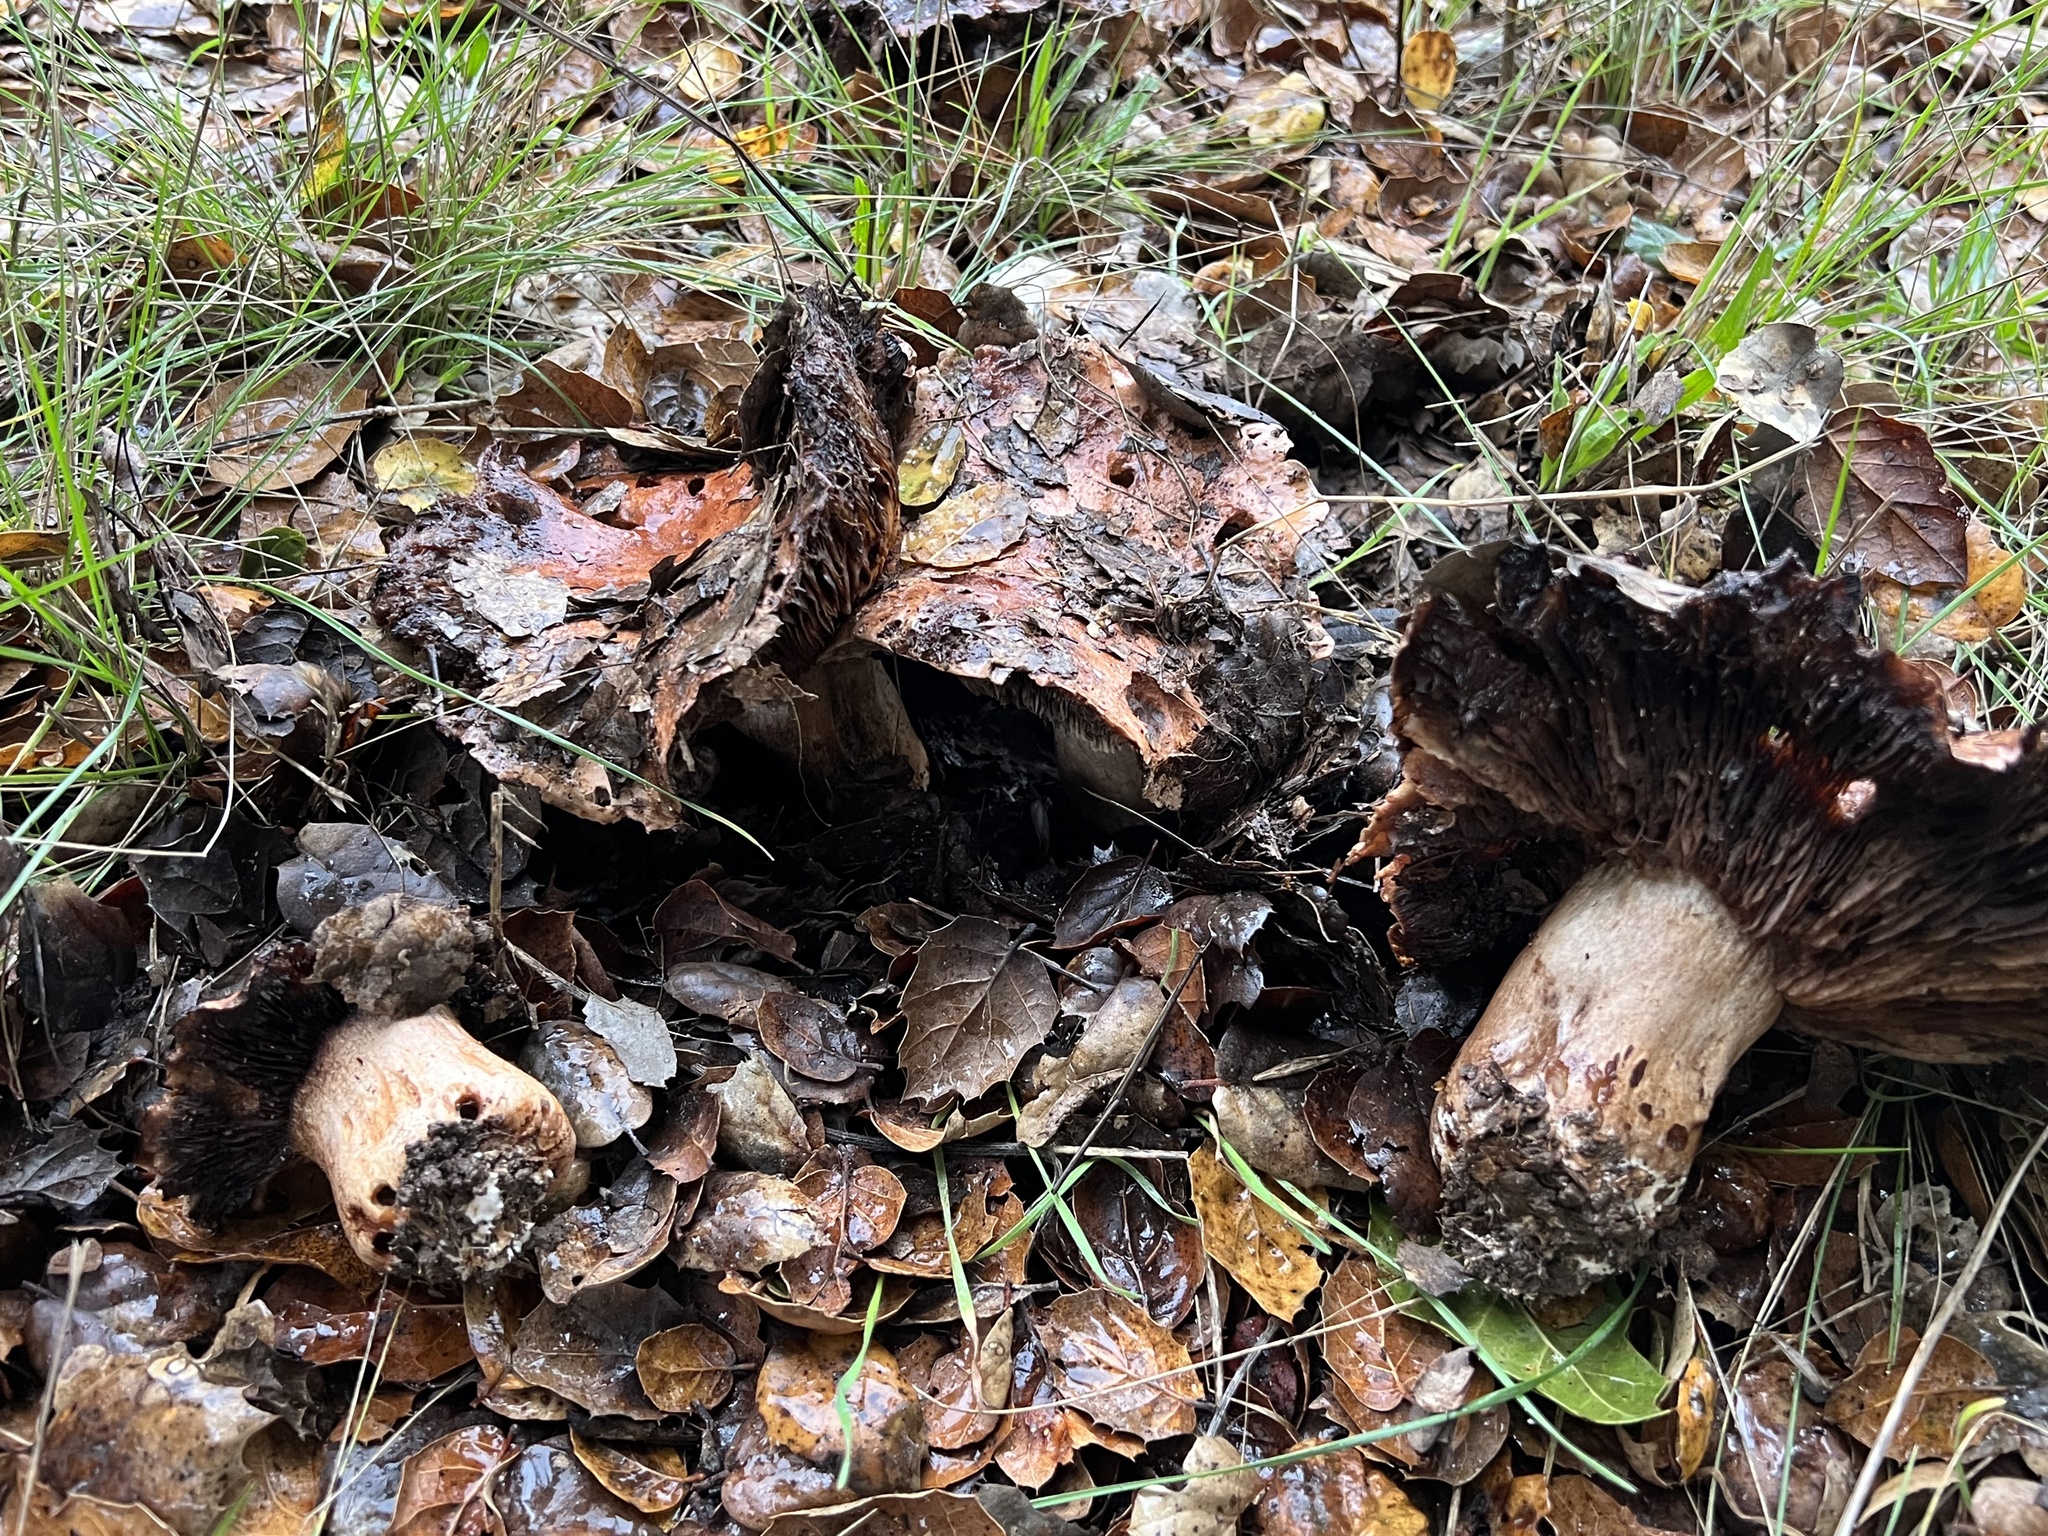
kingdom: Fungi
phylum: Basidiomycota
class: Agaricomycetes
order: Agaricales
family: Tricholomataceae
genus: Melanoleuca
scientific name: Melanoleuca dryophila
